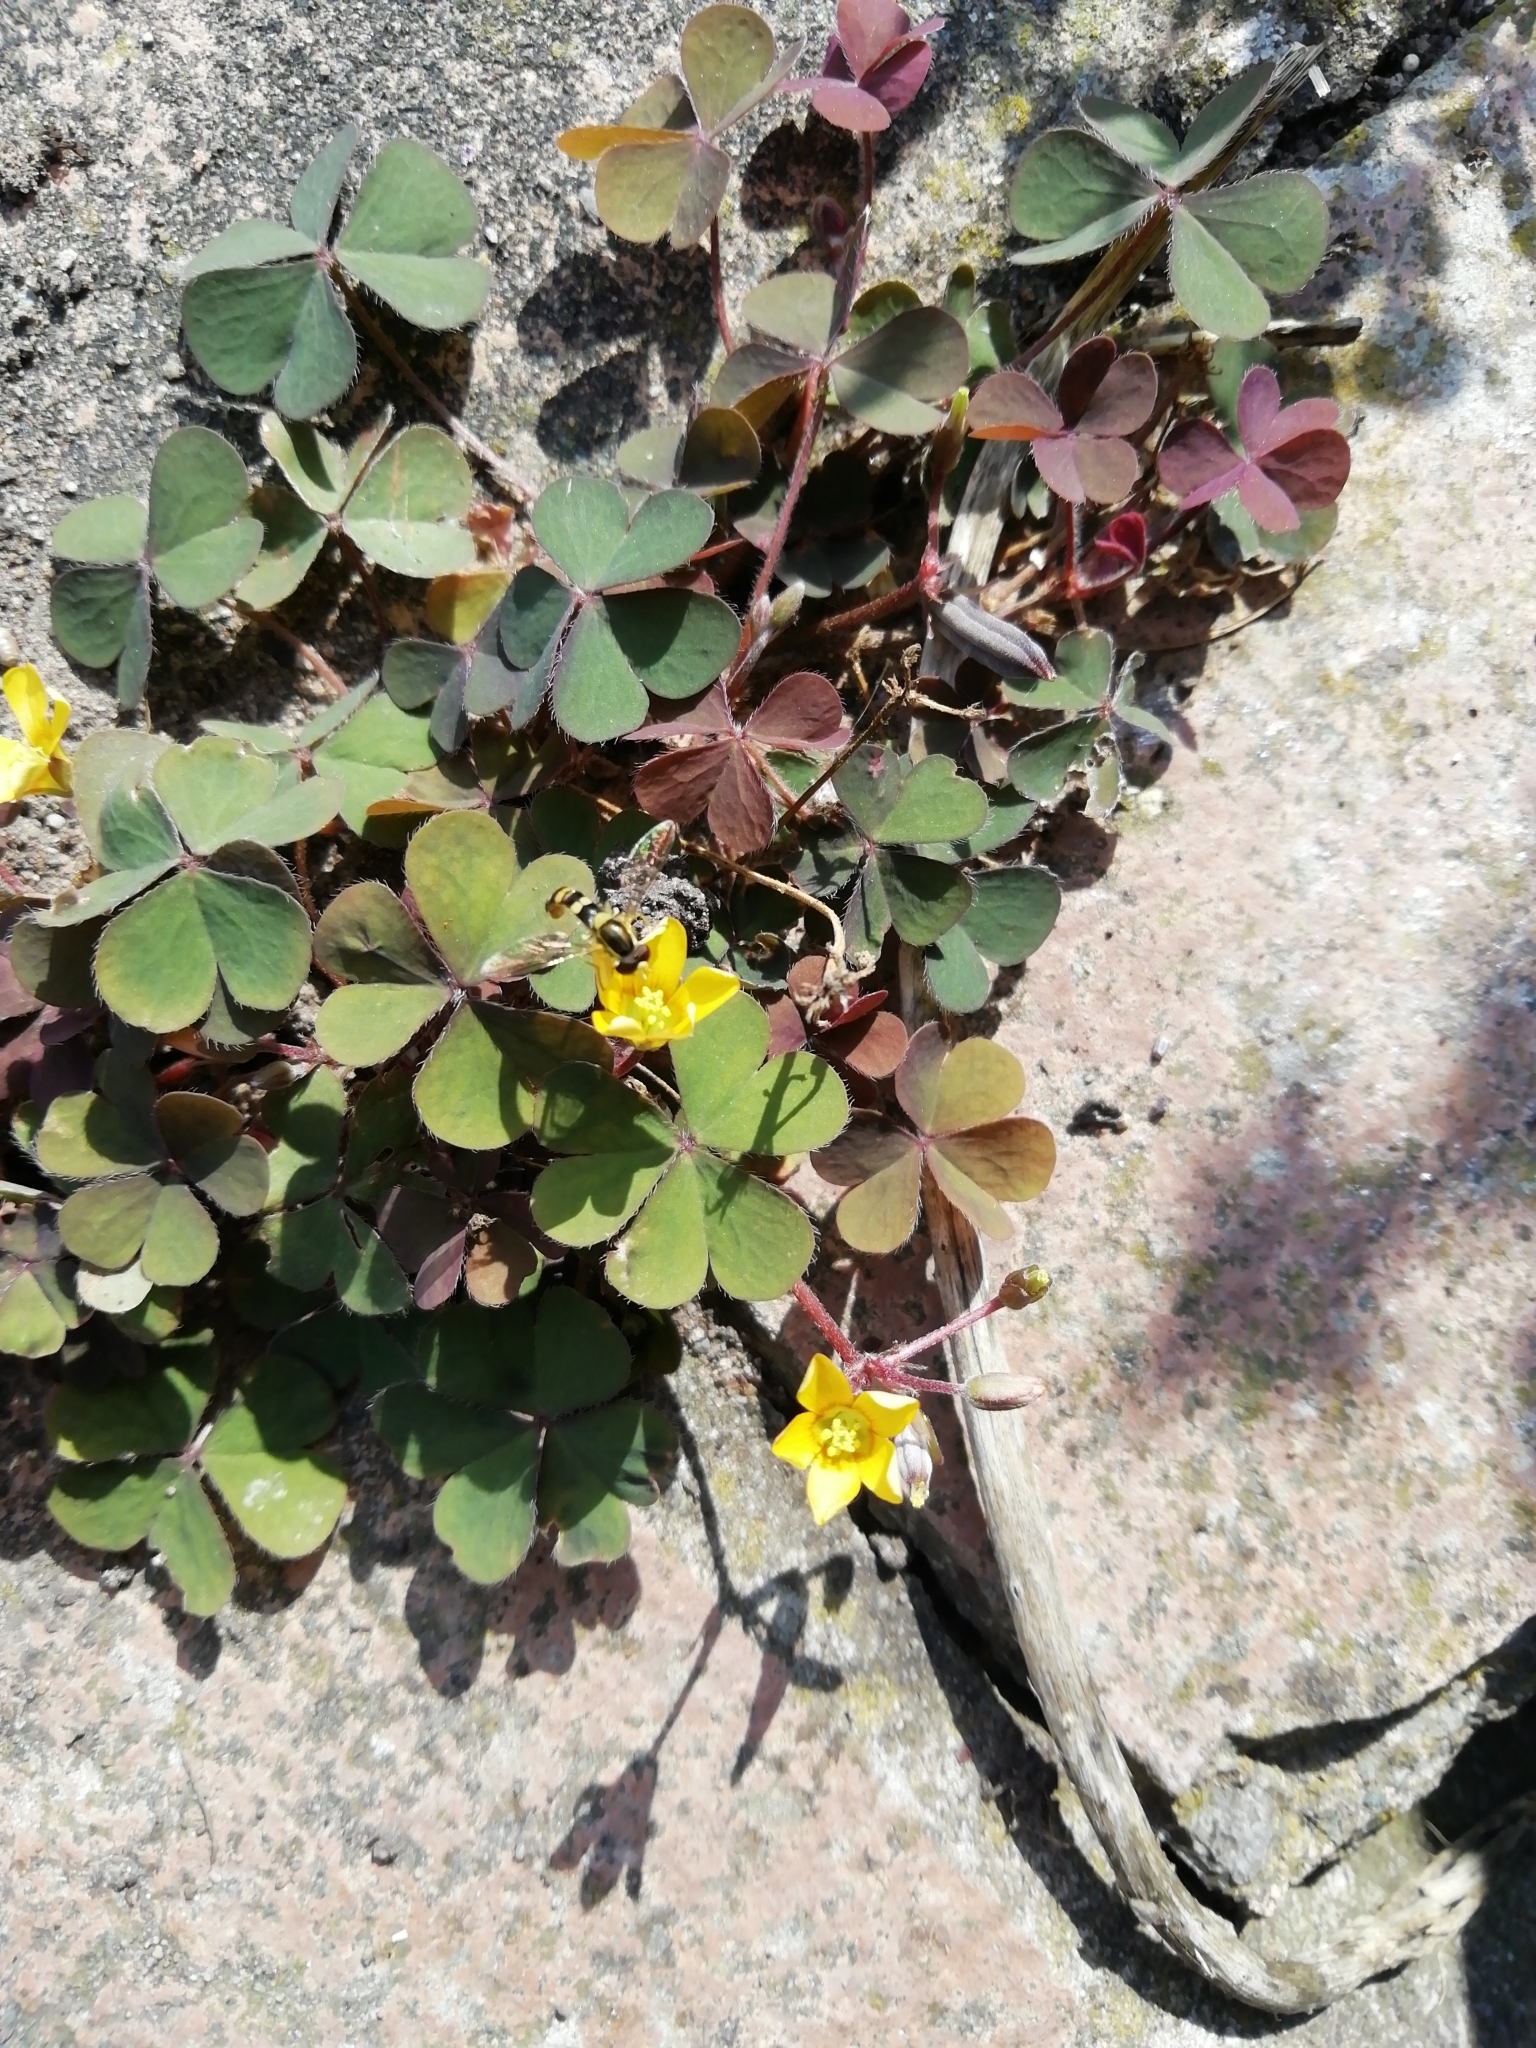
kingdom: Plantae
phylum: Tracheophyta
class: Magnoliopsida
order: Oxalidales
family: Oxalidaceae
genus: Oxalis
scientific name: Oxalis corniculata
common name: Procumbent yellow-sorrel
